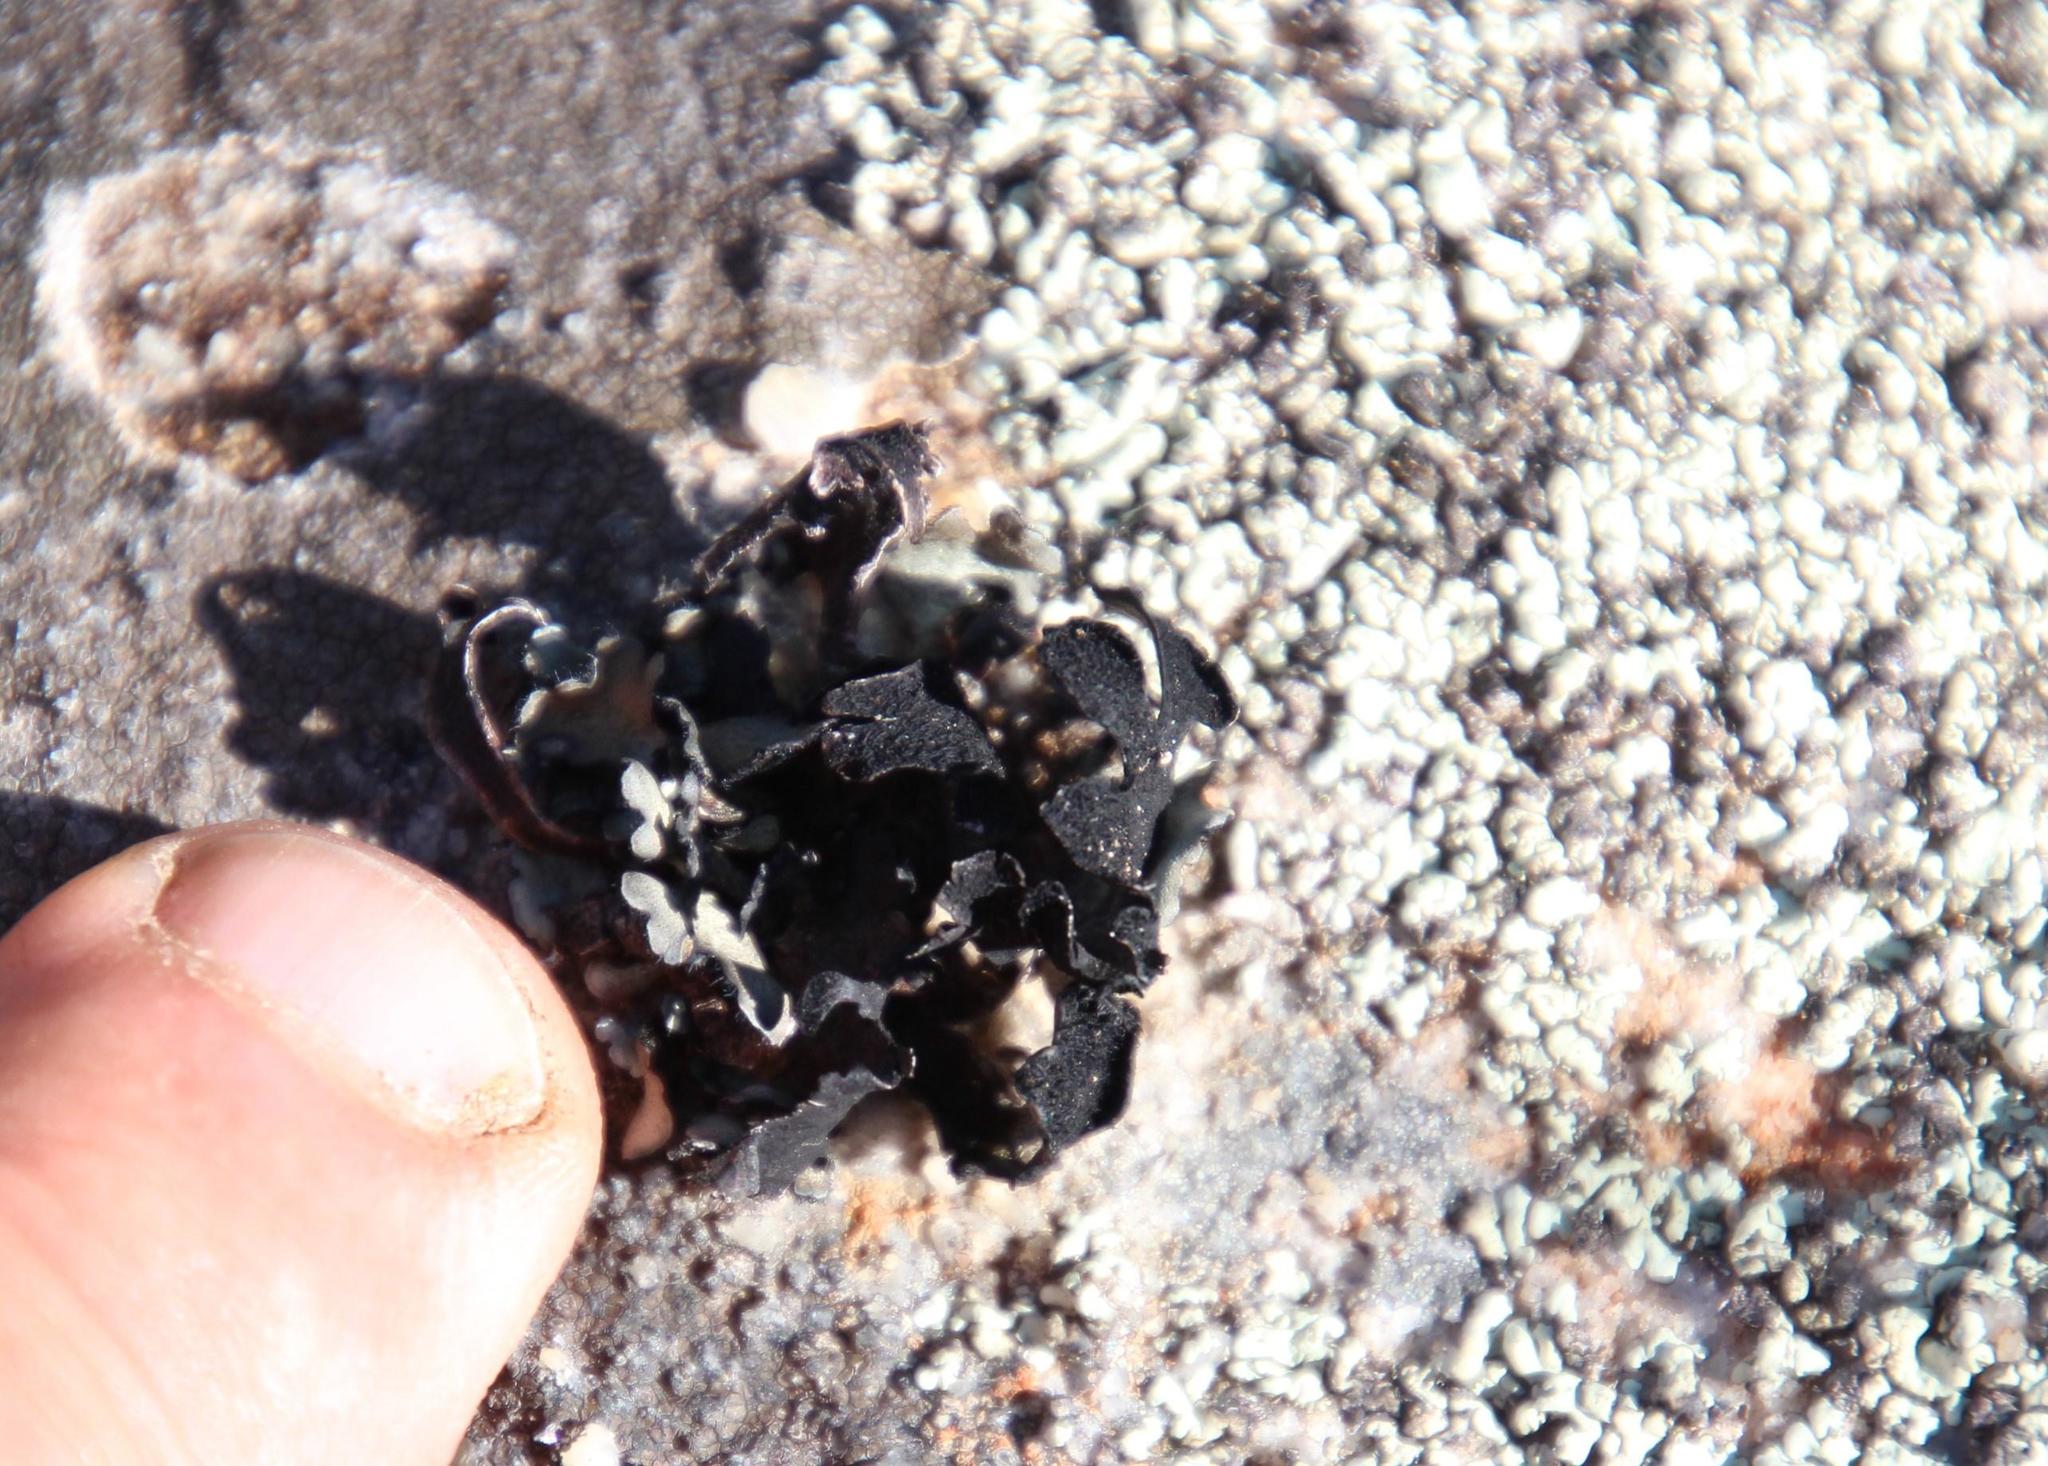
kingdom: Fungi
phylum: Ascomycota
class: Lecanoromycetes
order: Lecanorales
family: Parmeliaceae
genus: Xanthoparmelia
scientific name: Xanthoparmelia hottentotta
